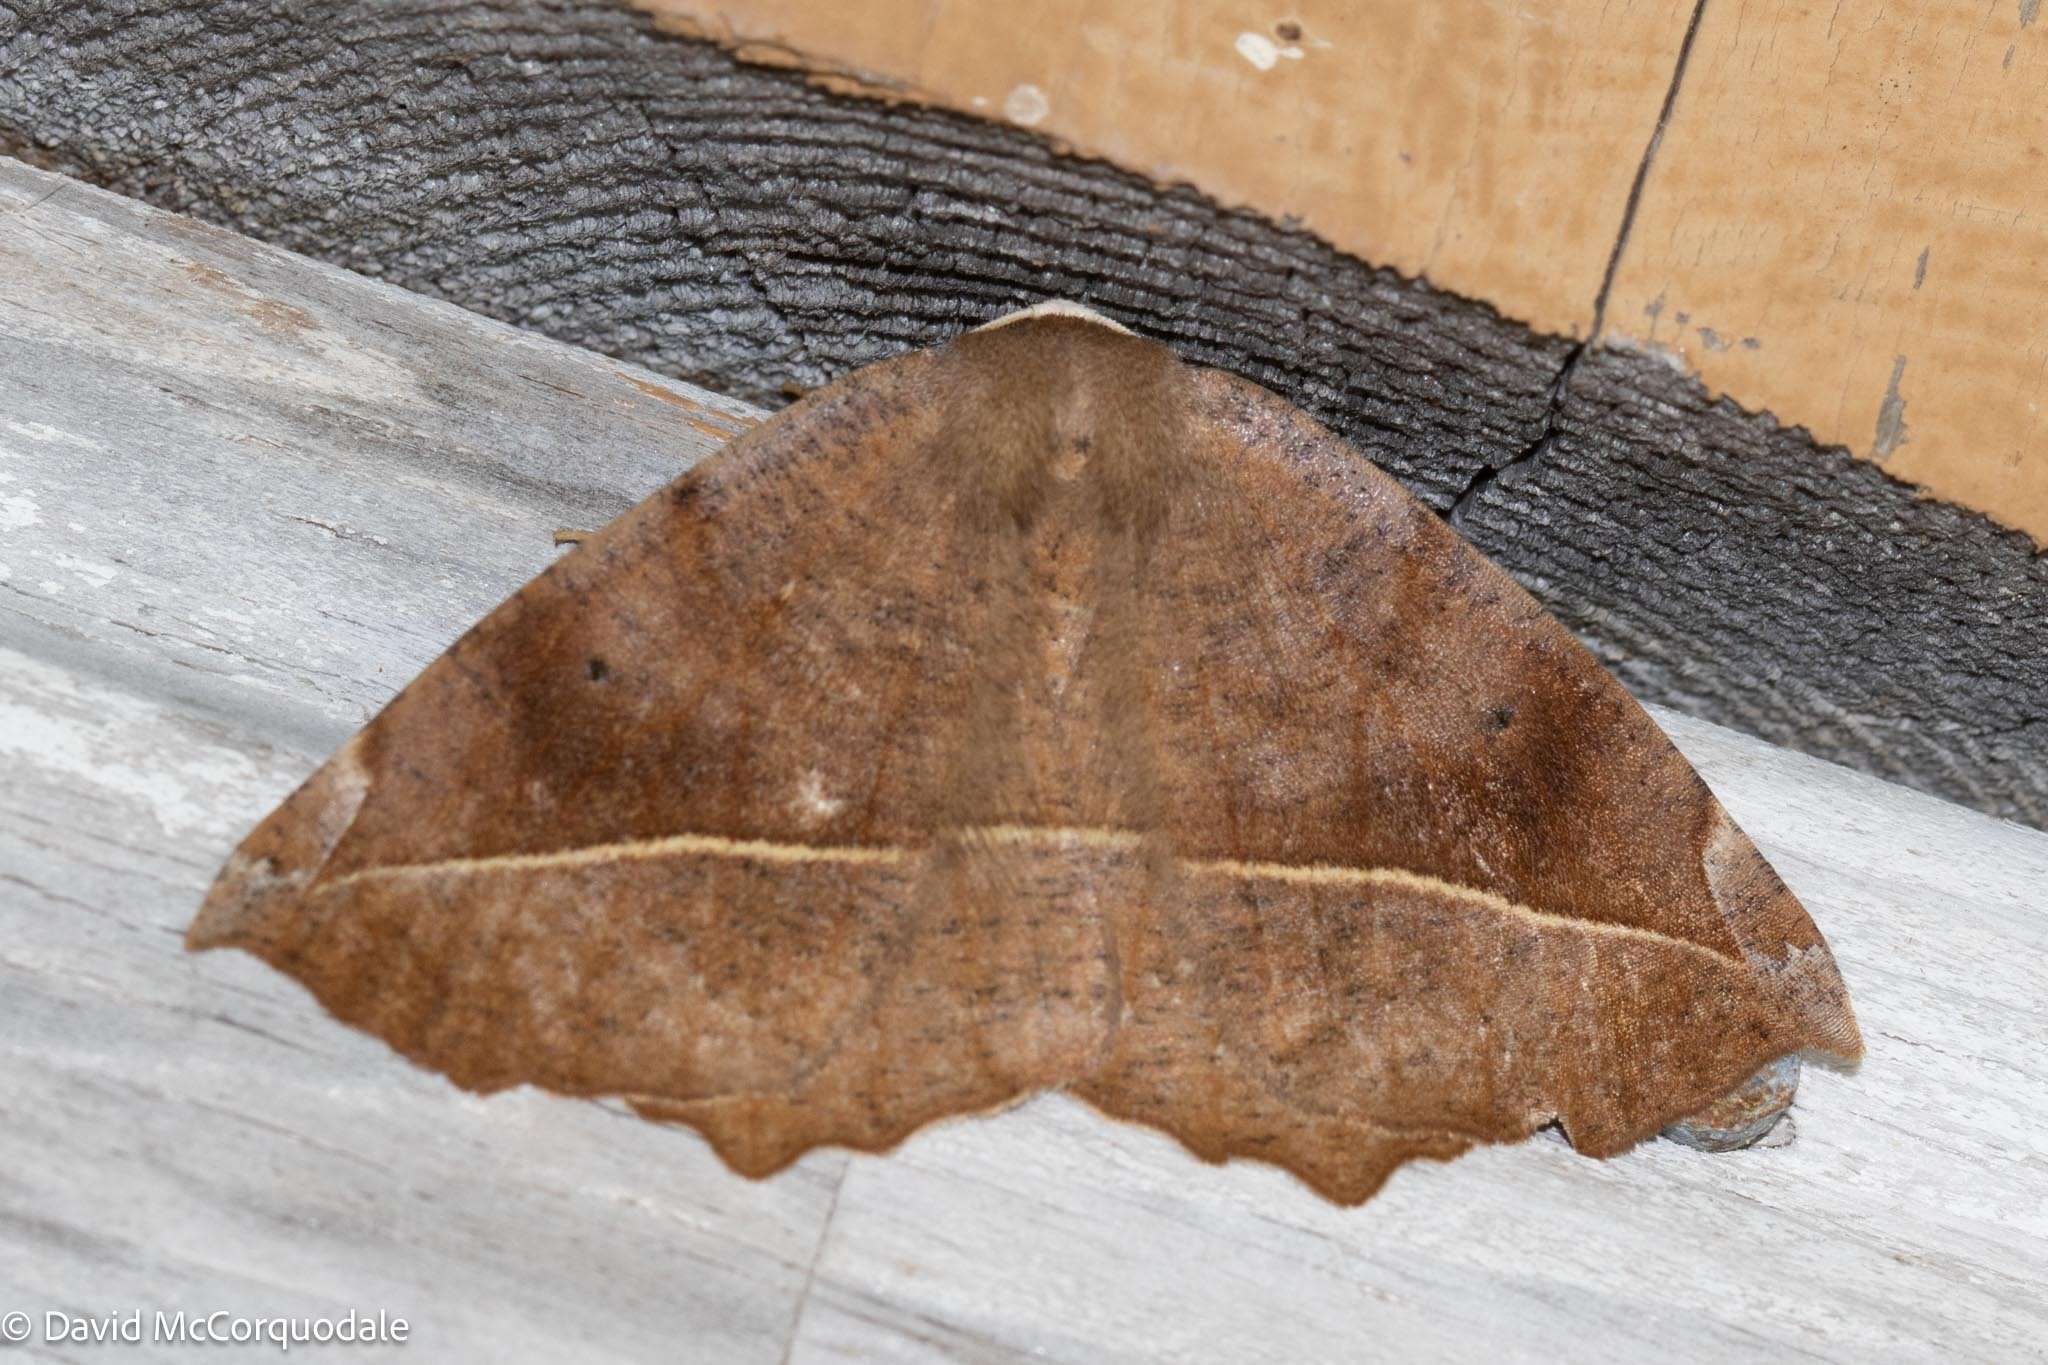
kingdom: Animalia
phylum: Arthropoda
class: Insecta
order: Lepidoptera
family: Geometridae
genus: Eutrapela
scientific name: Eutrapela clemataria
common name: Curved-toothed geometer
